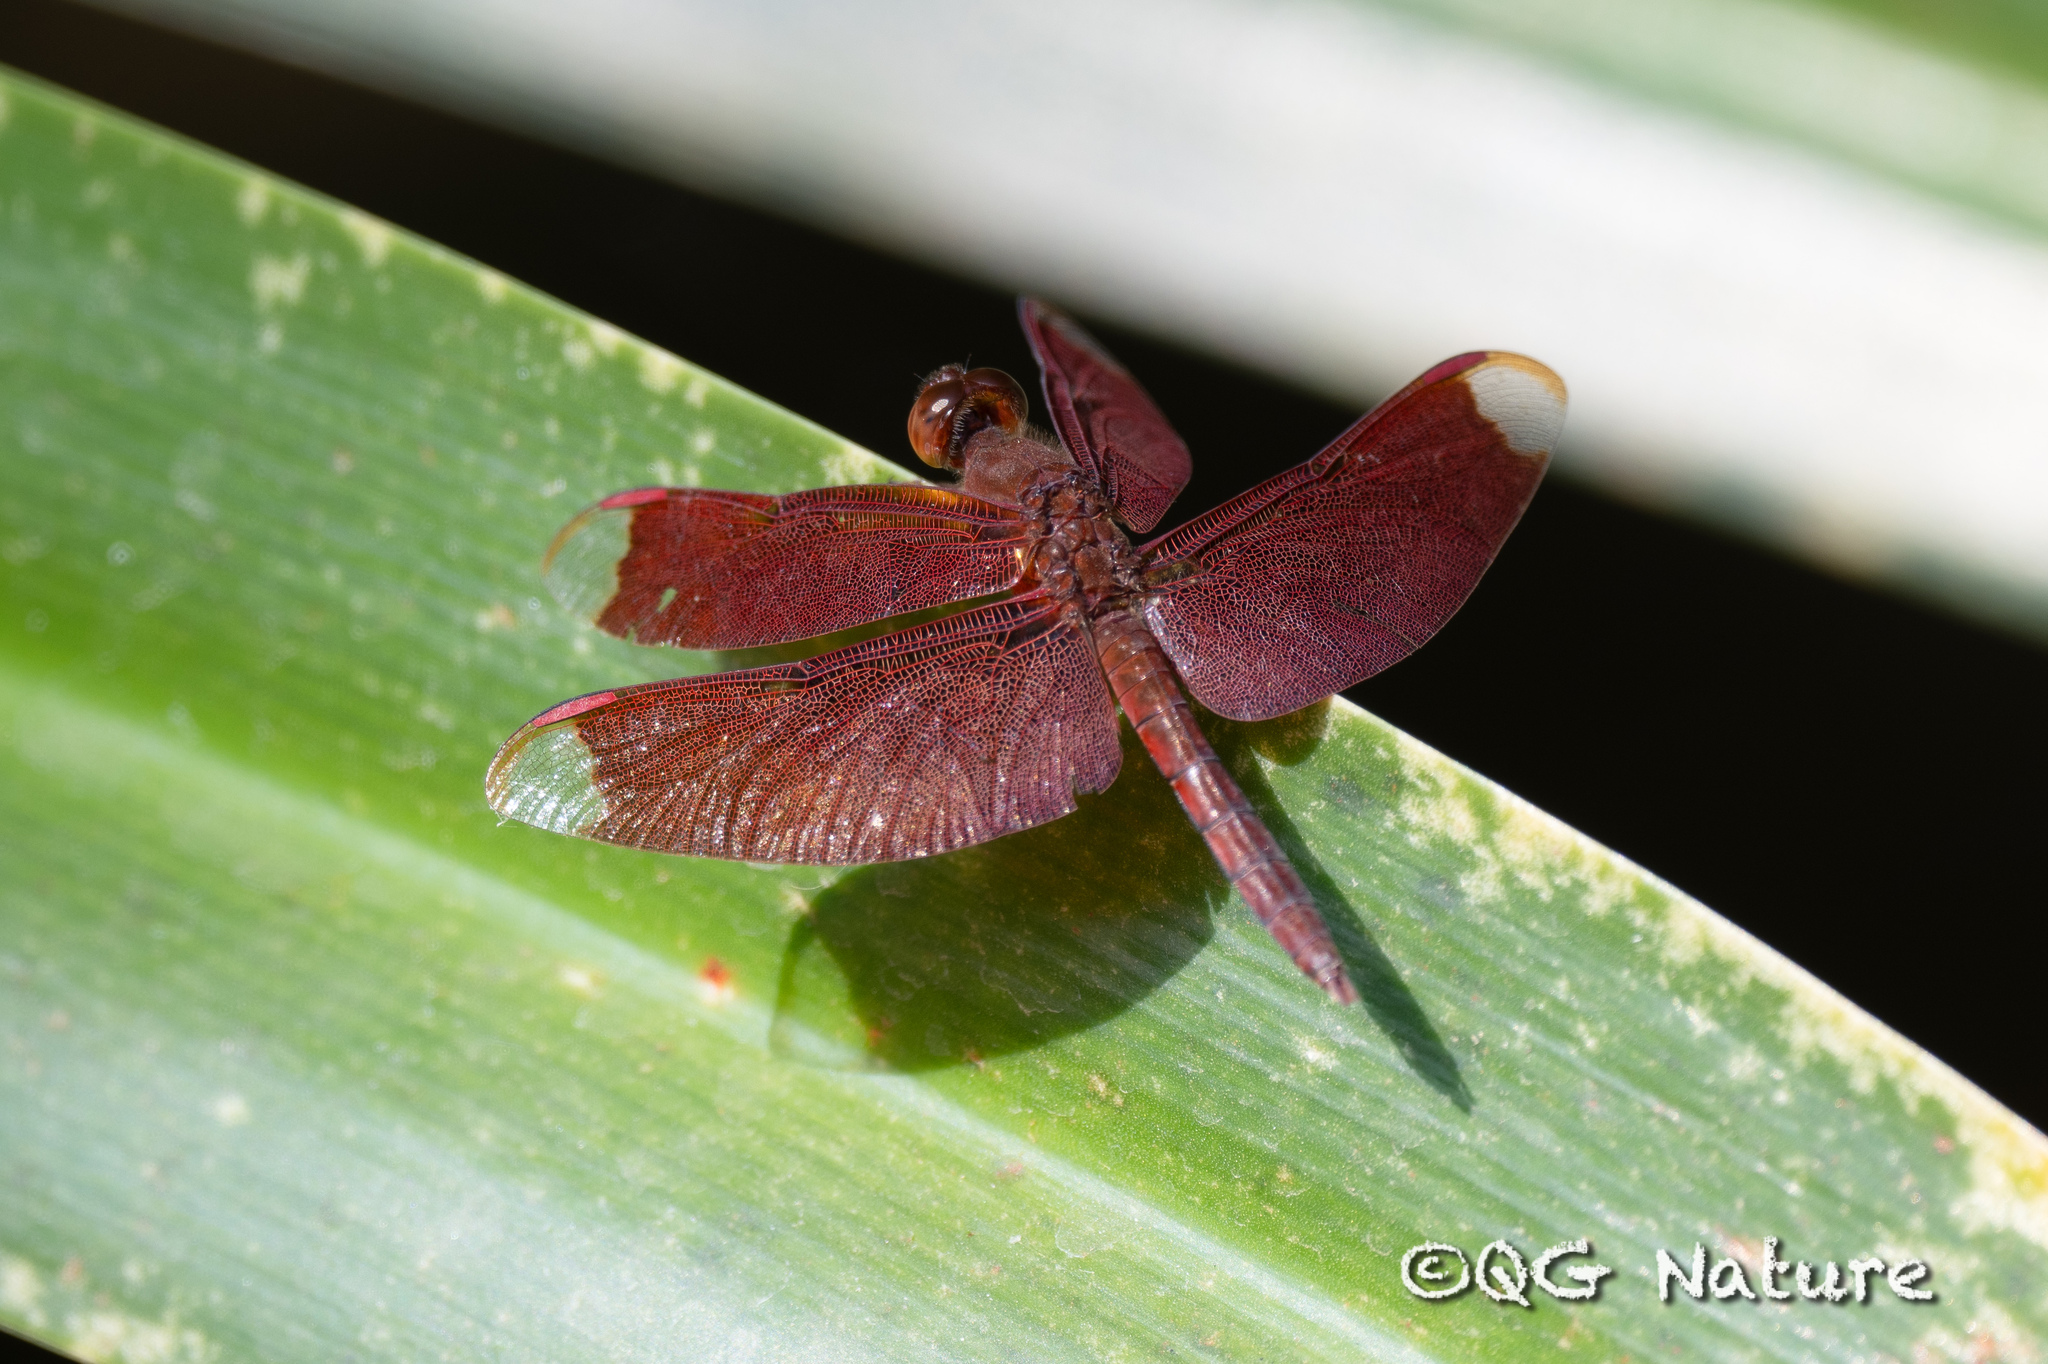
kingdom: Animalia
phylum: Arthropoda
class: Insecta
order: Odonata
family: Libellulidae
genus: Neurothemis
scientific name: Neurothemis fulvia
